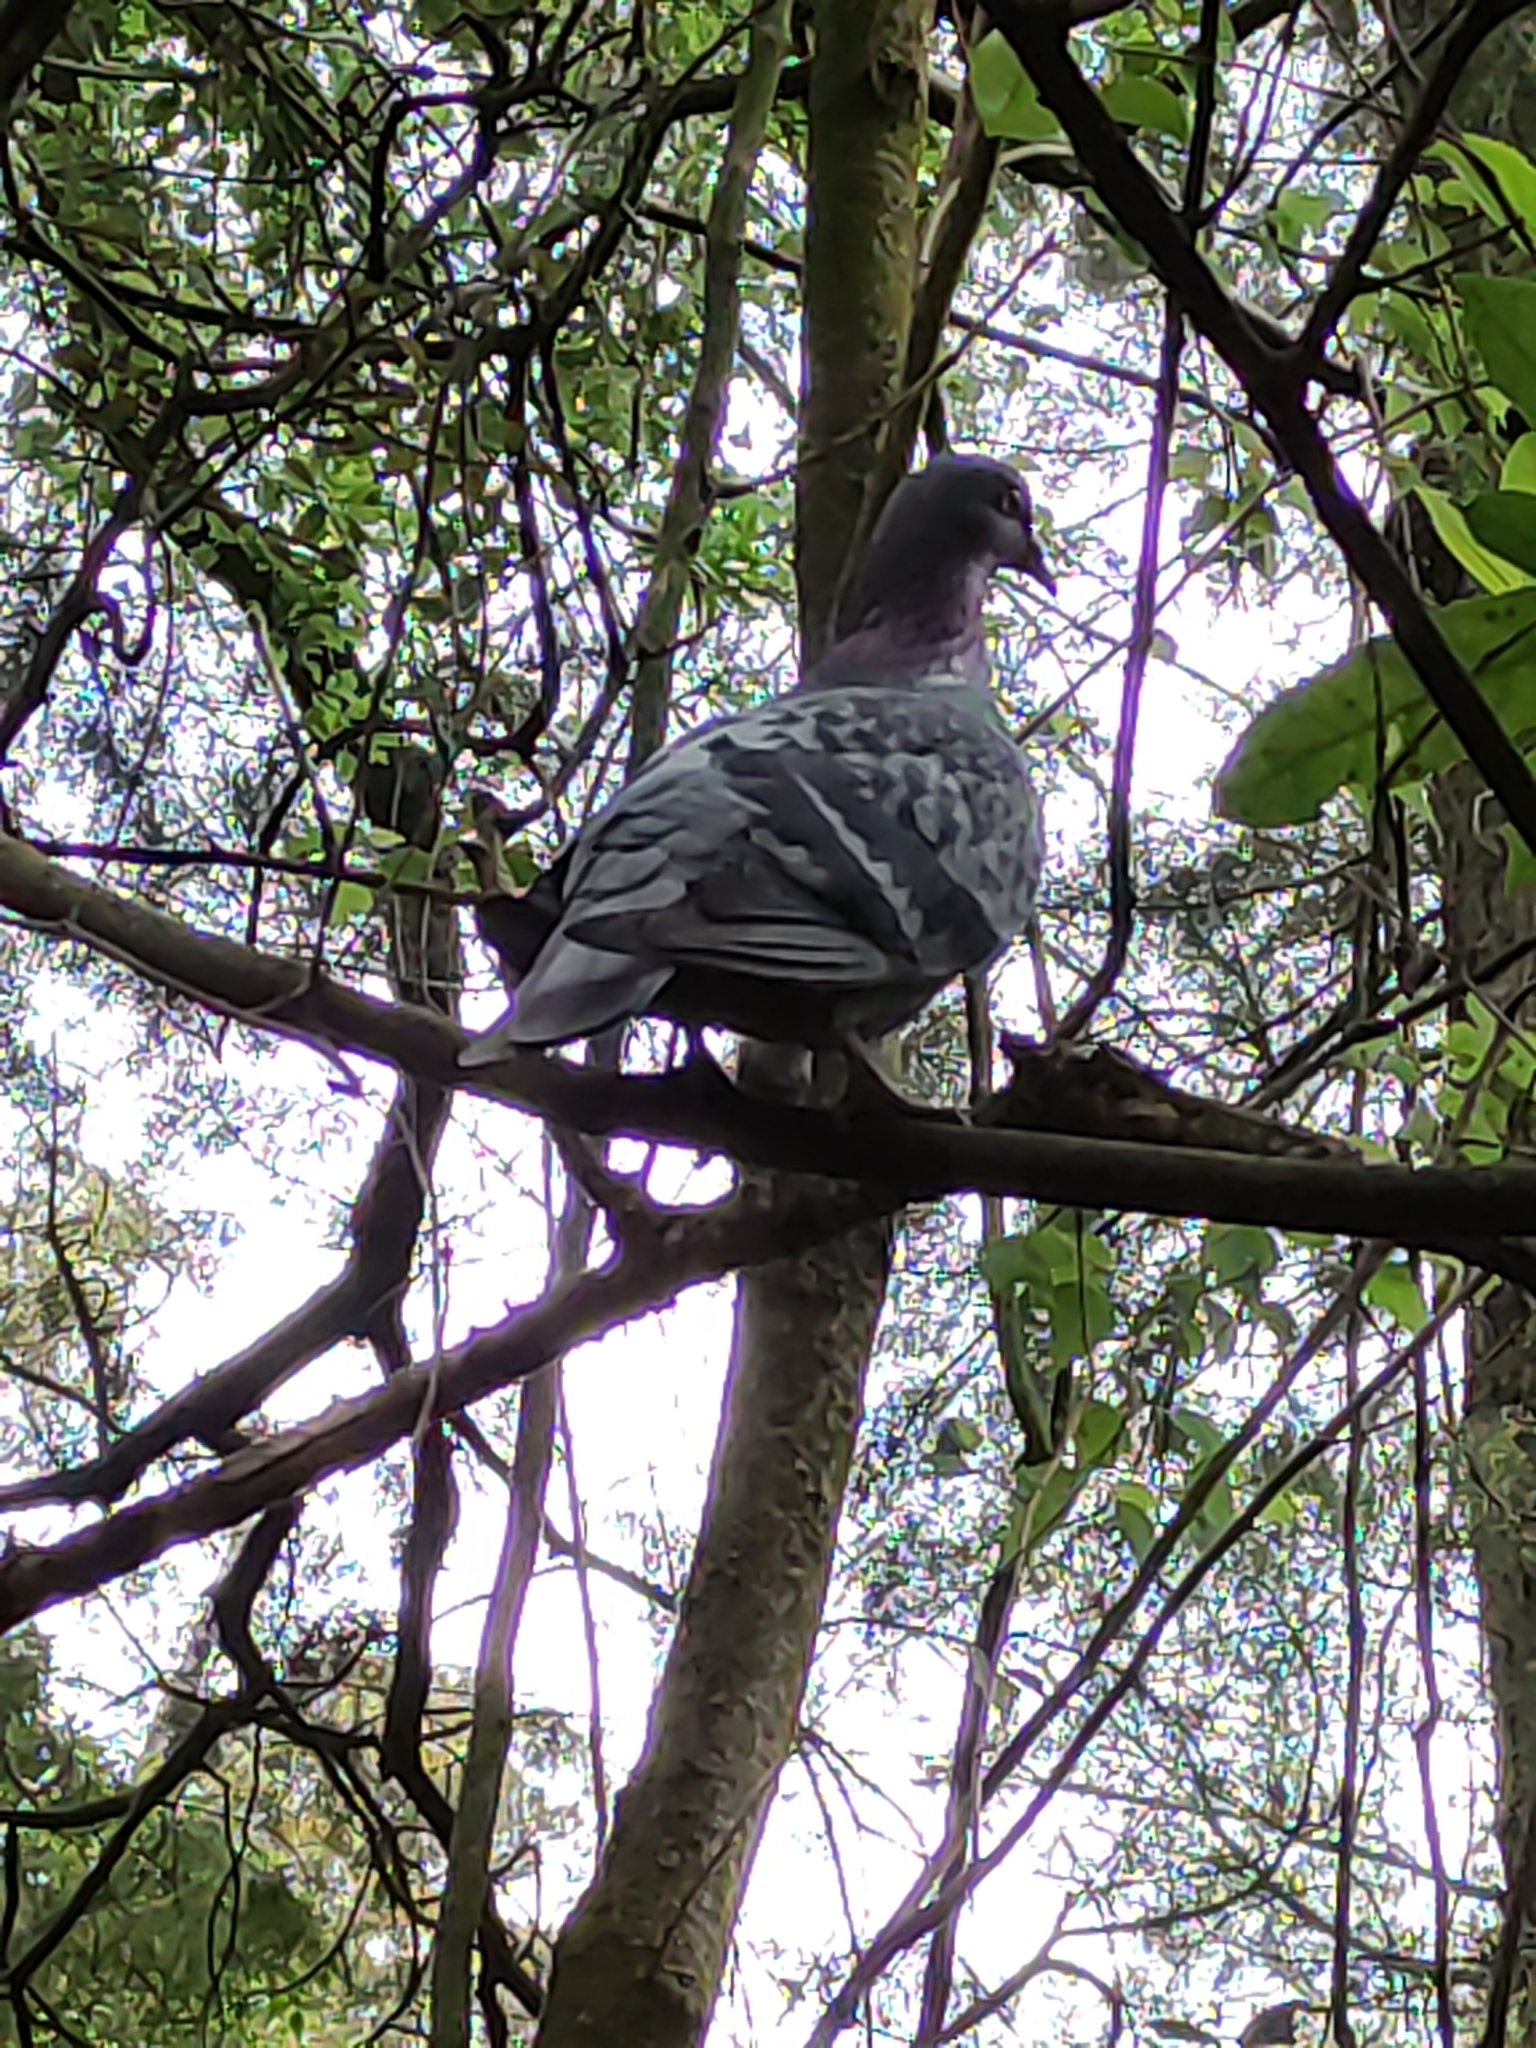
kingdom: Animalia
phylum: Chordata
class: Aves
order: Columbiformes
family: Columbidae
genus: Columba
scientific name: Columba livia
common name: Rock pigeon
